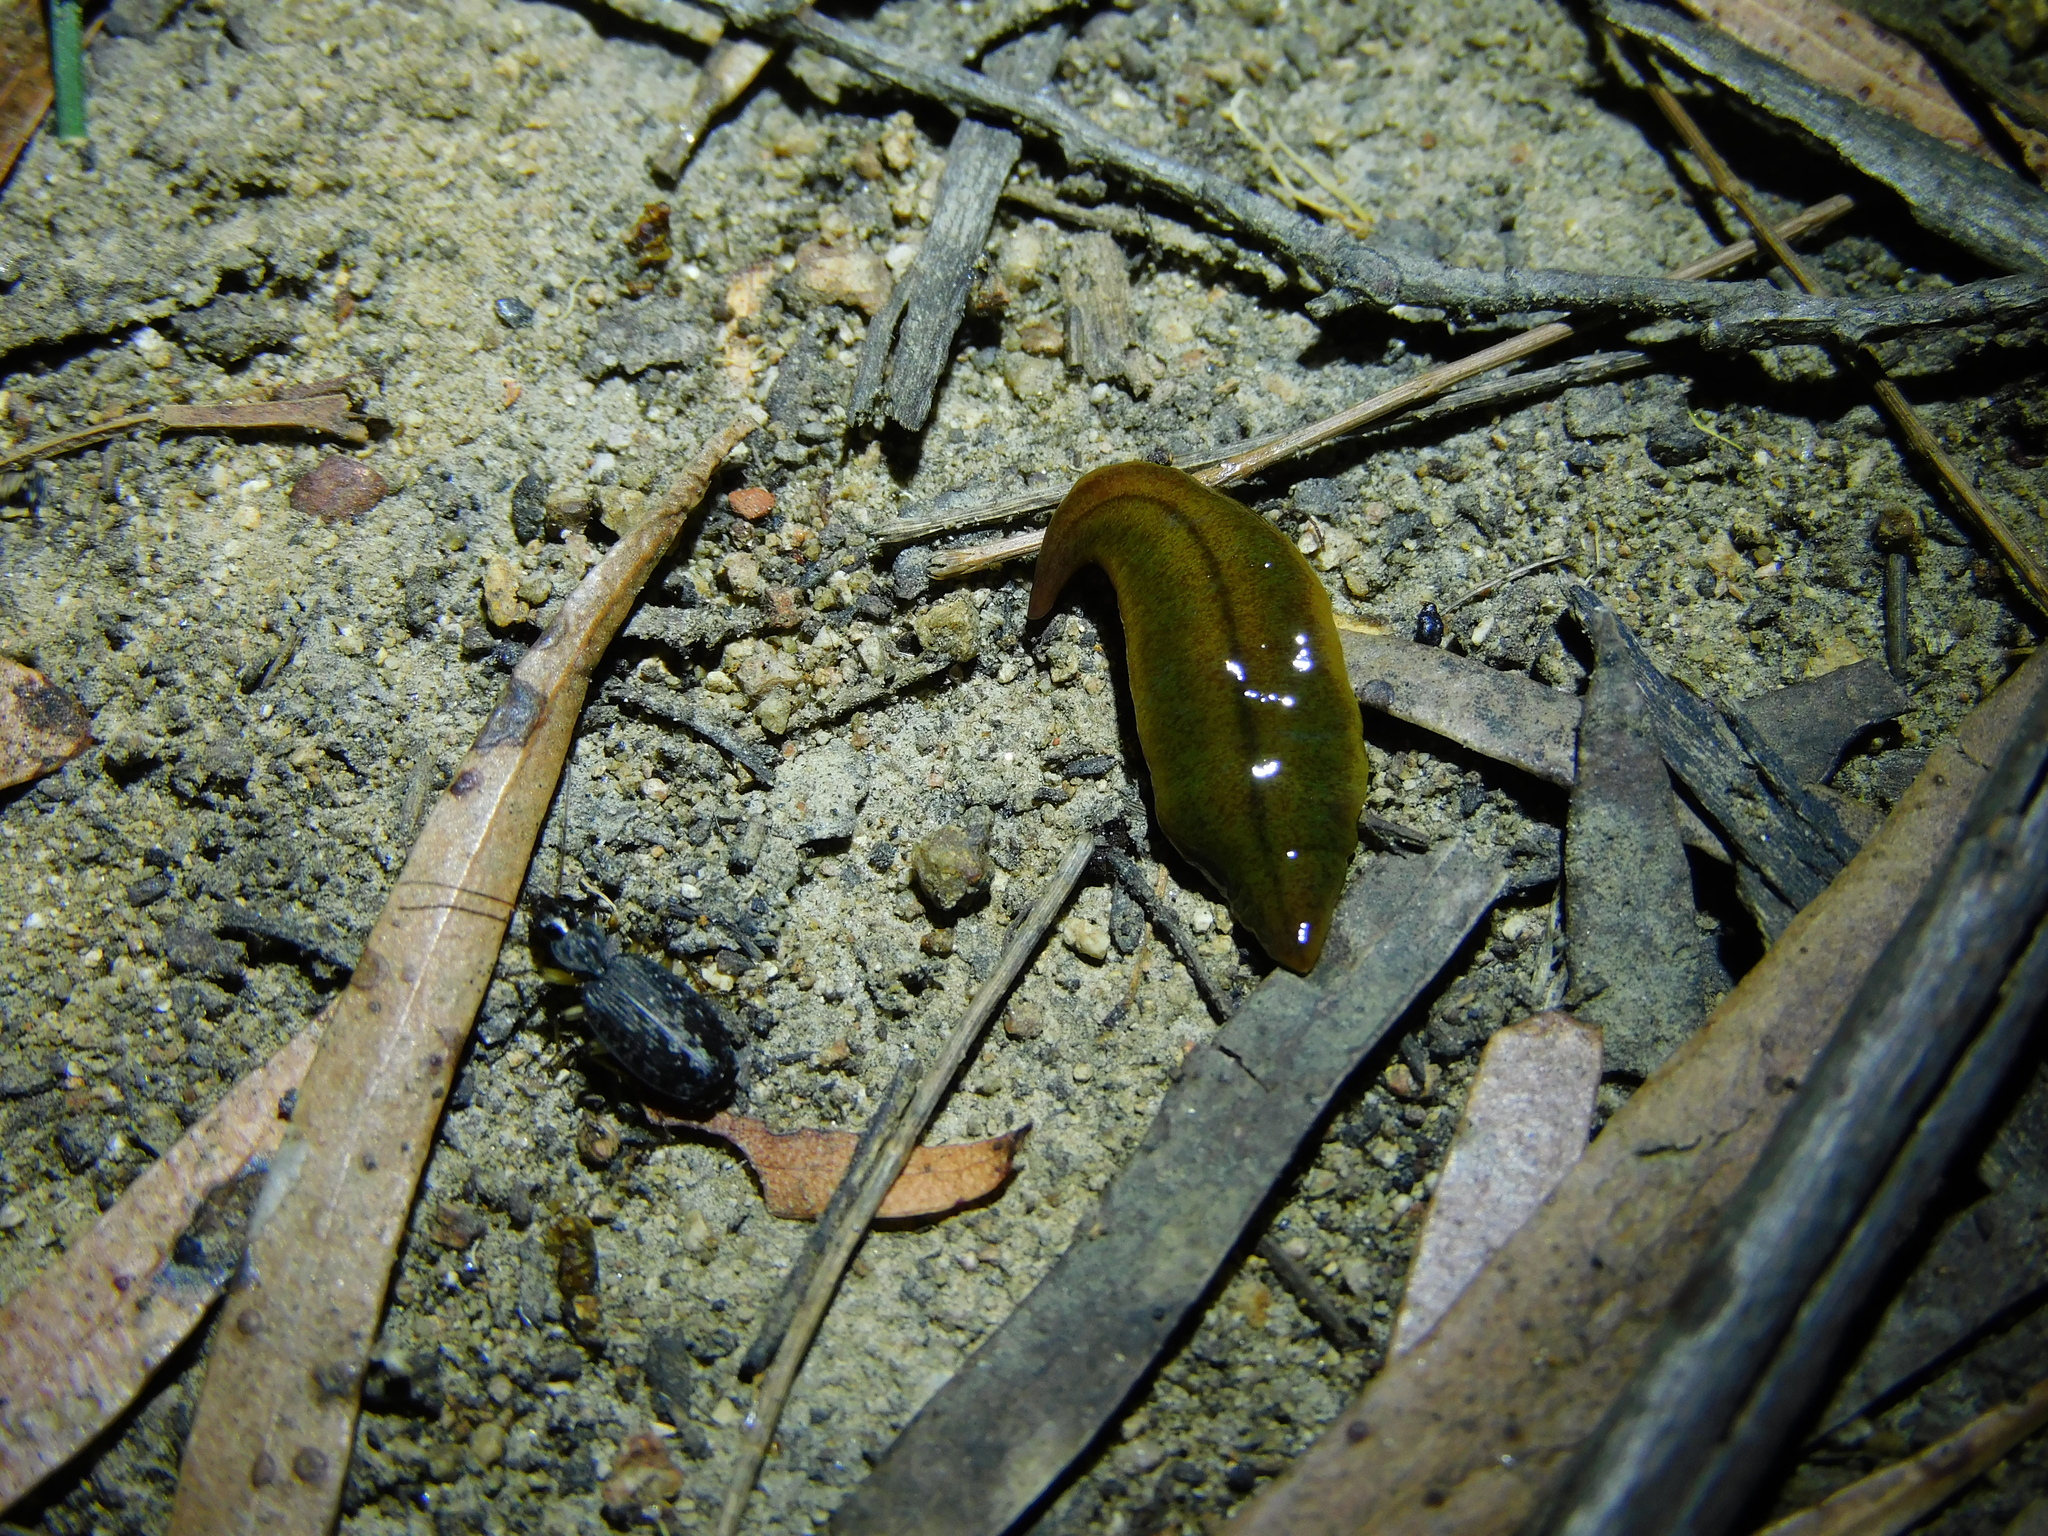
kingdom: Animalia
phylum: Platyhelminthes
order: Tricladida
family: Geoplanidae
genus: Tasmanoplana
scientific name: Tasmanoplana tasmaniana
